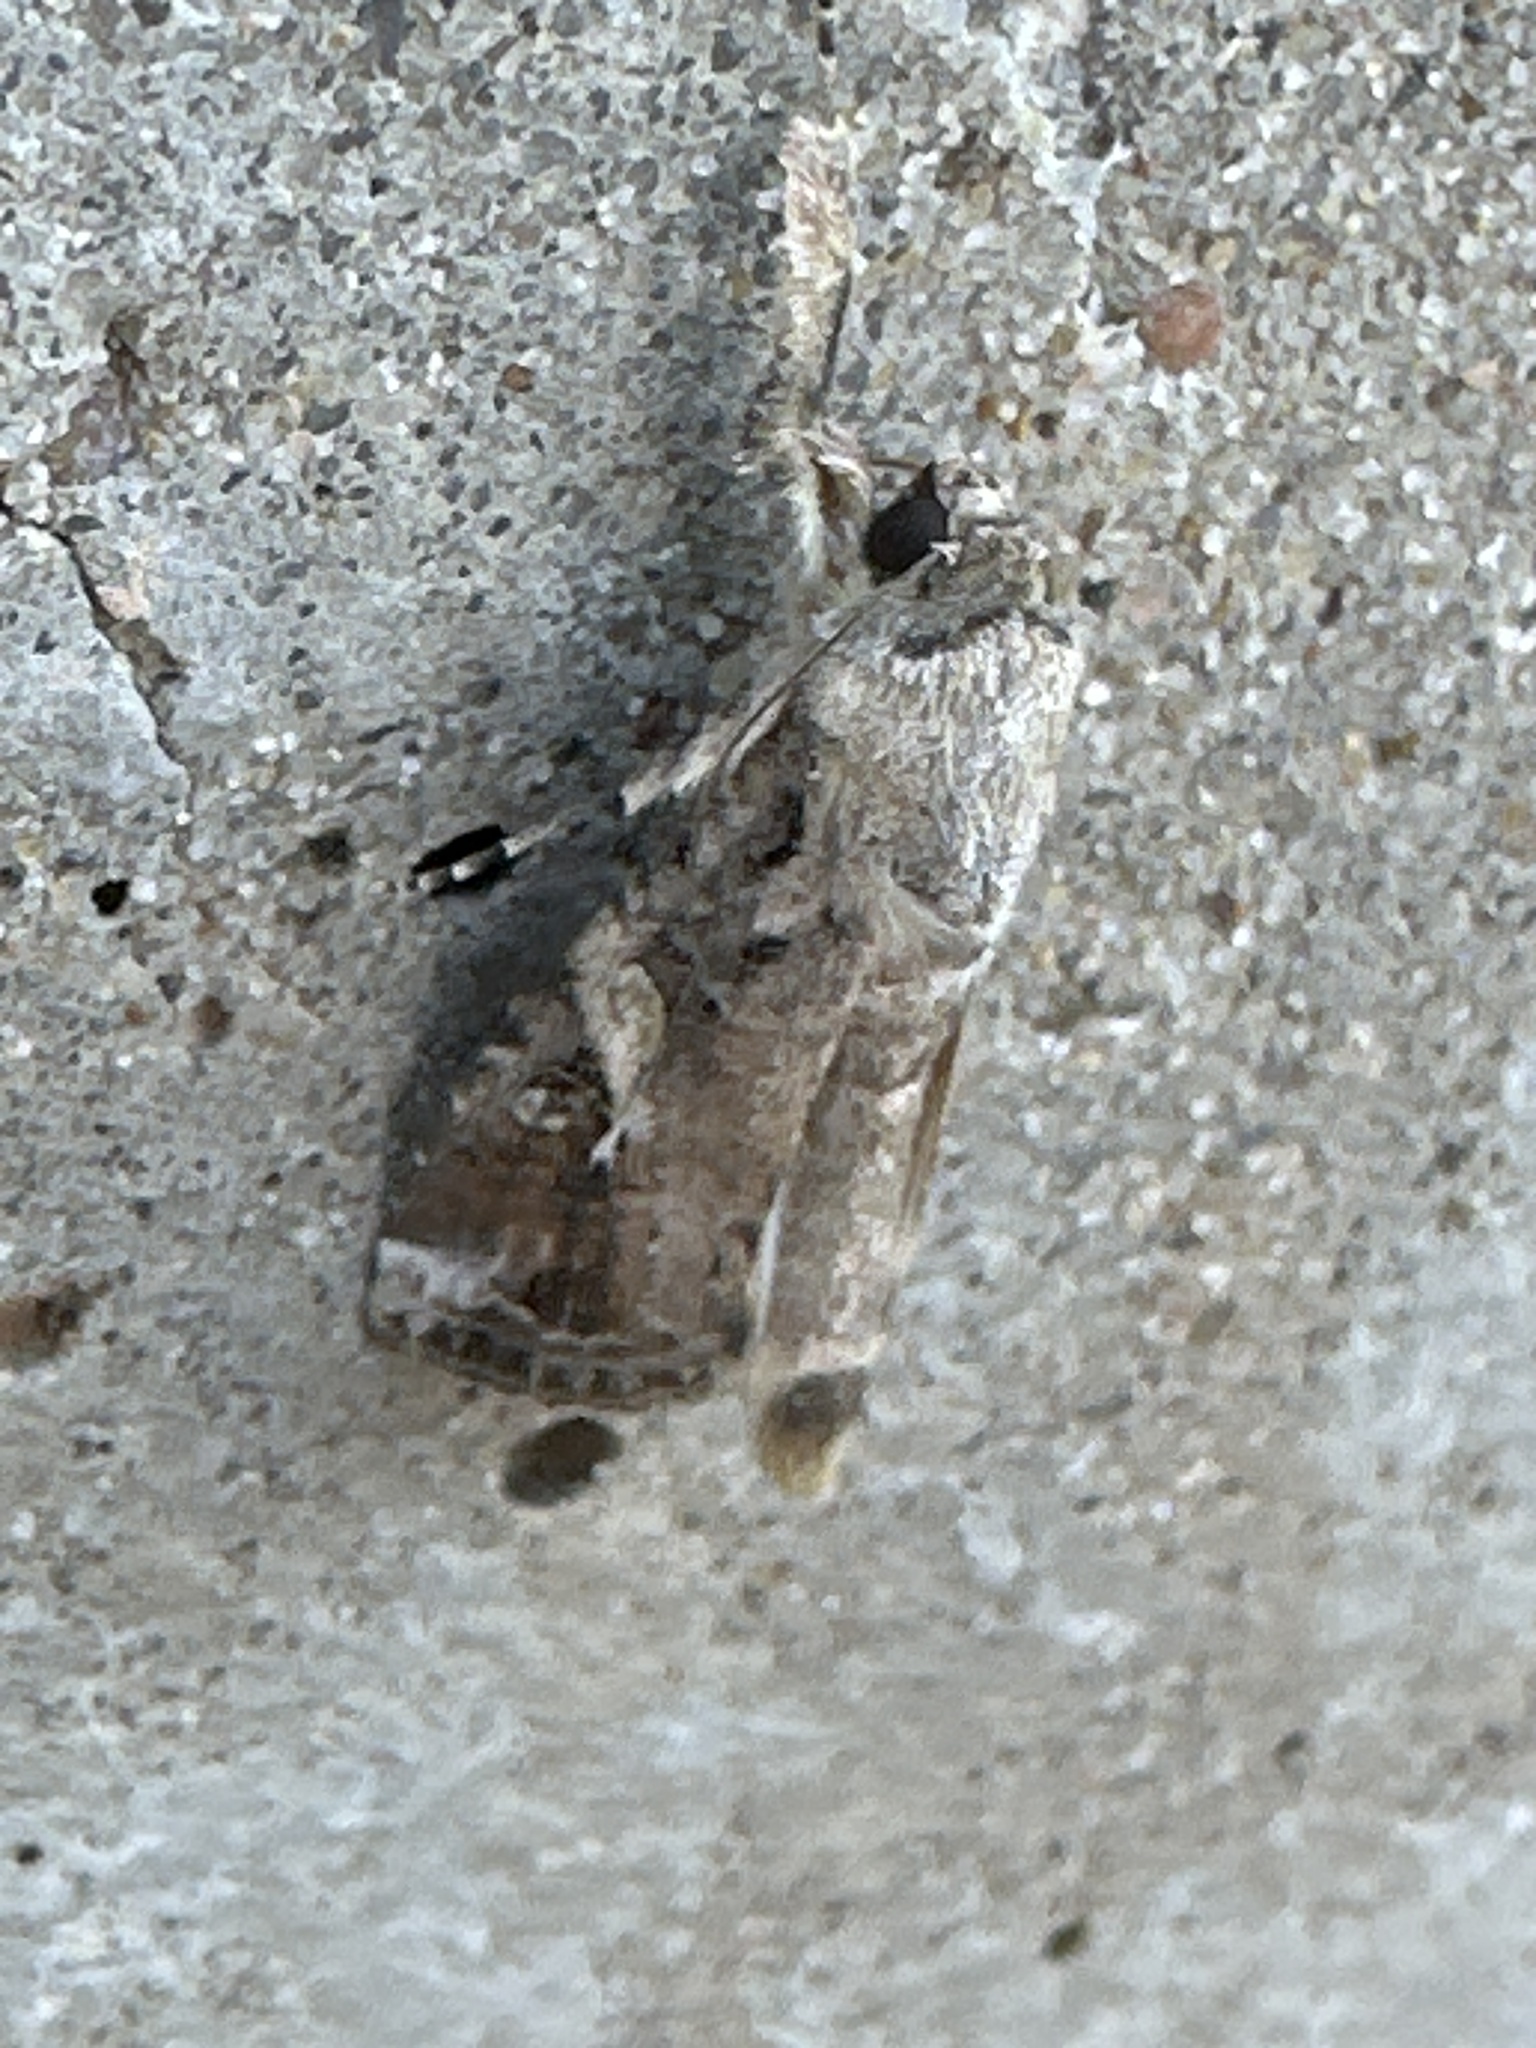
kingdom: Animalia
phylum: Arthropoda
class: Insecta
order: Lepidoptera
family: Noctuidae
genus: Spodoptera
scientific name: Spodoptera frugiperda
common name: Fall armyworm
